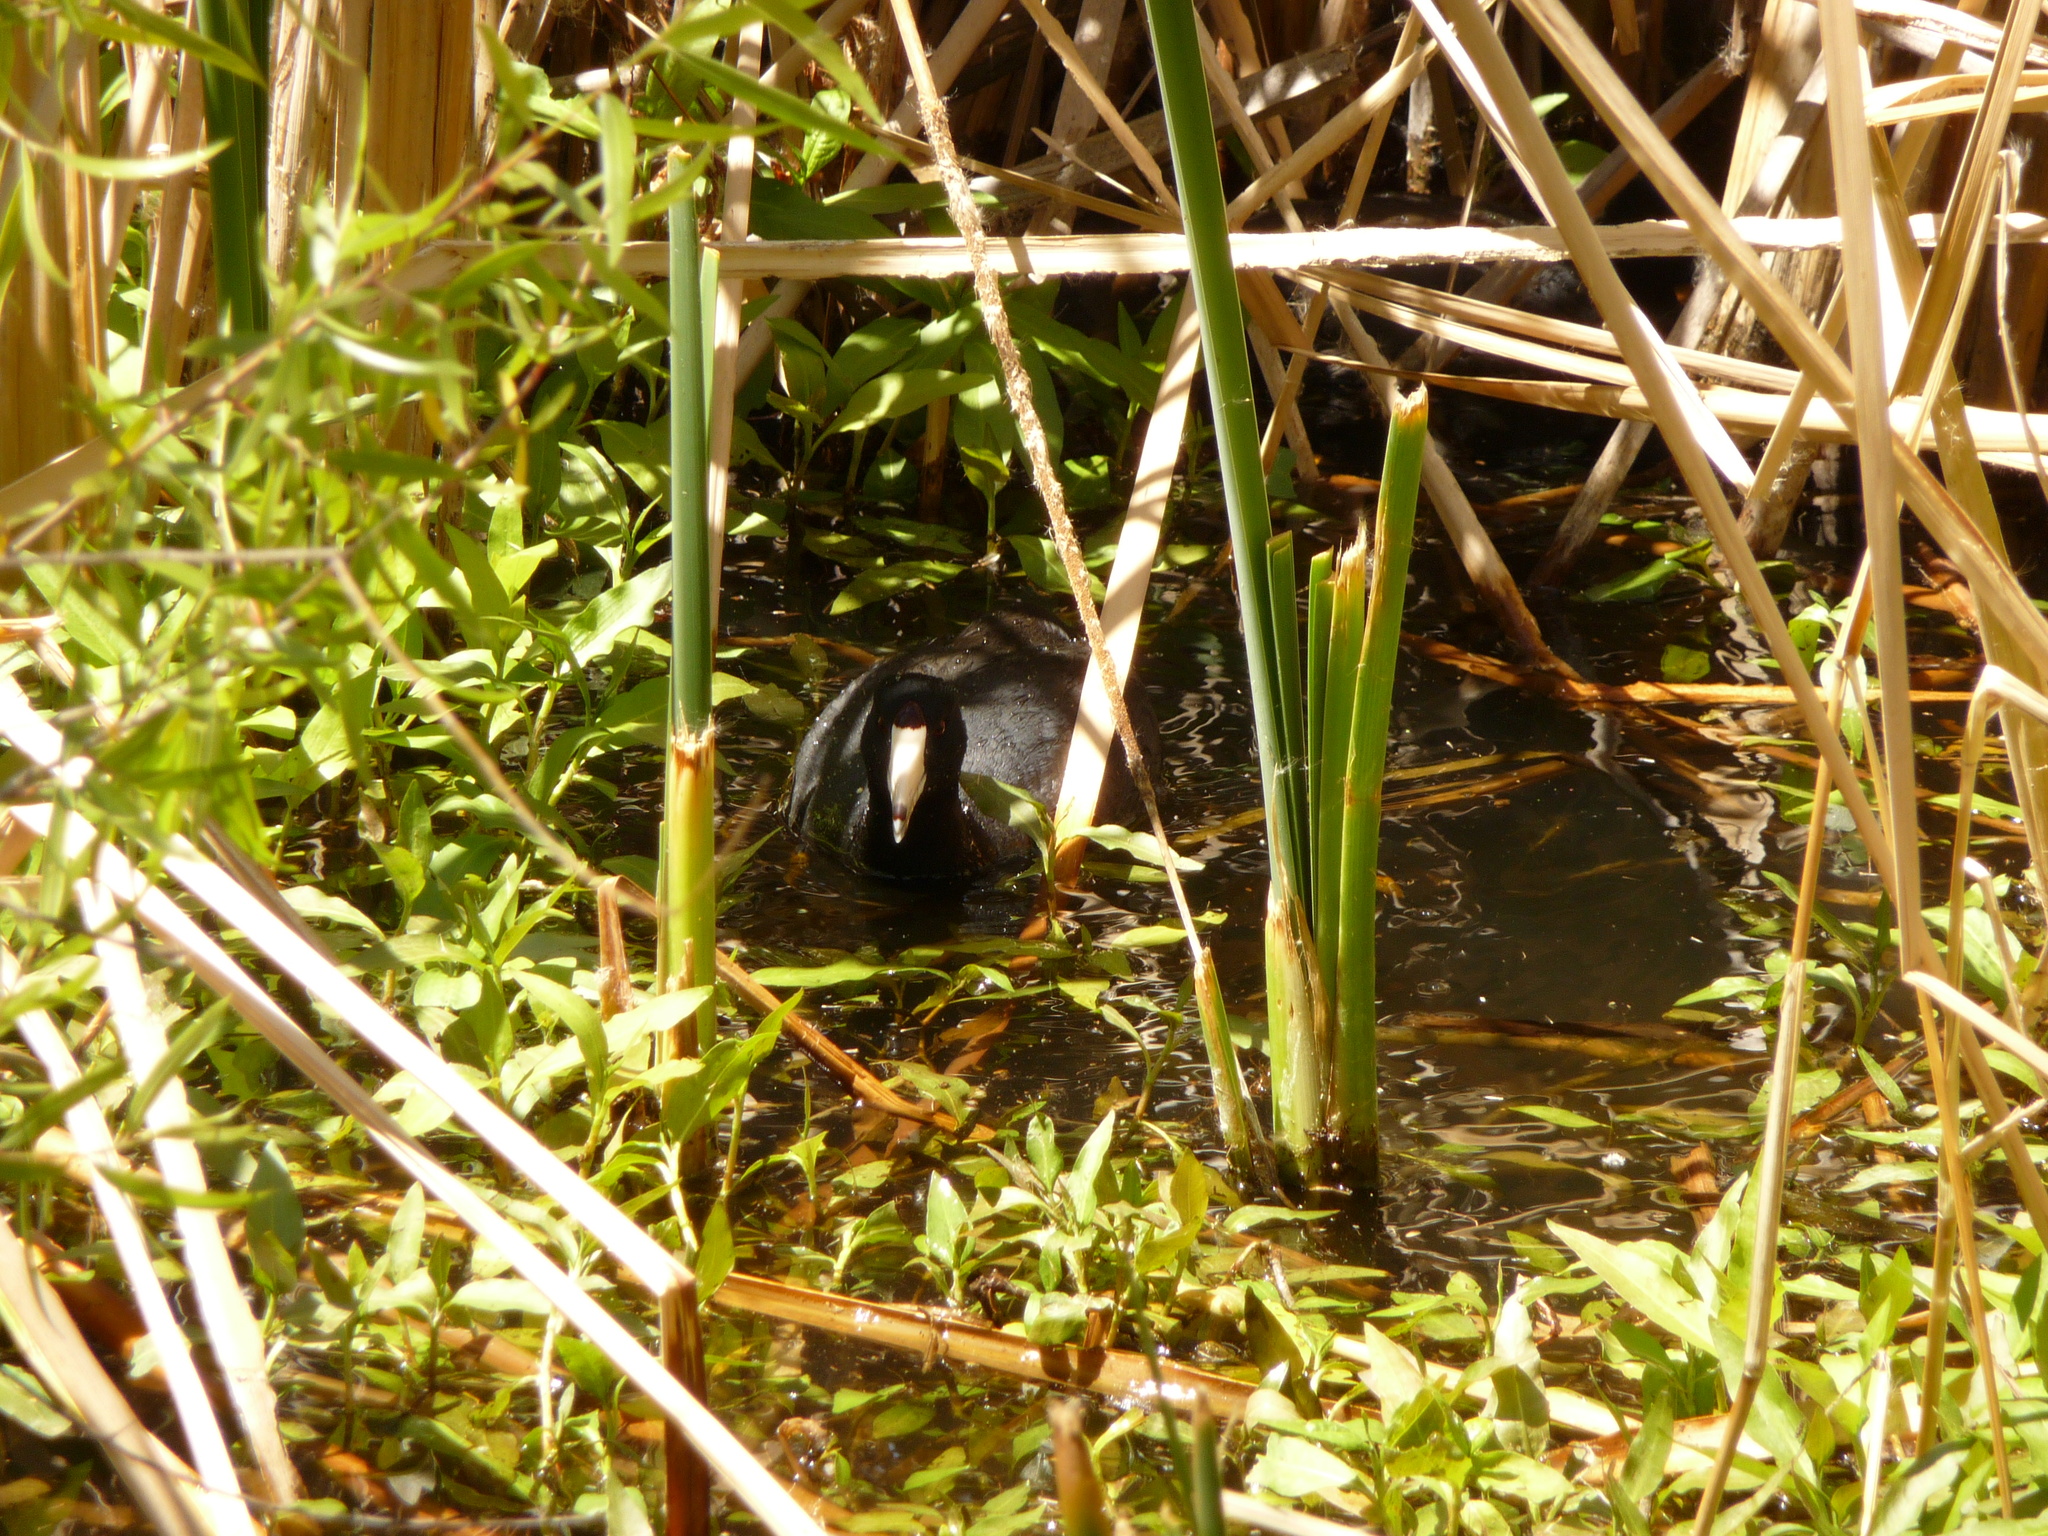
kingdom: Animalia
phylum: Chordata
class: Aves
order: Gruiformes
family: Rallidae
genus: Fulica
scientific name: Fulica americana
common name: American coot
